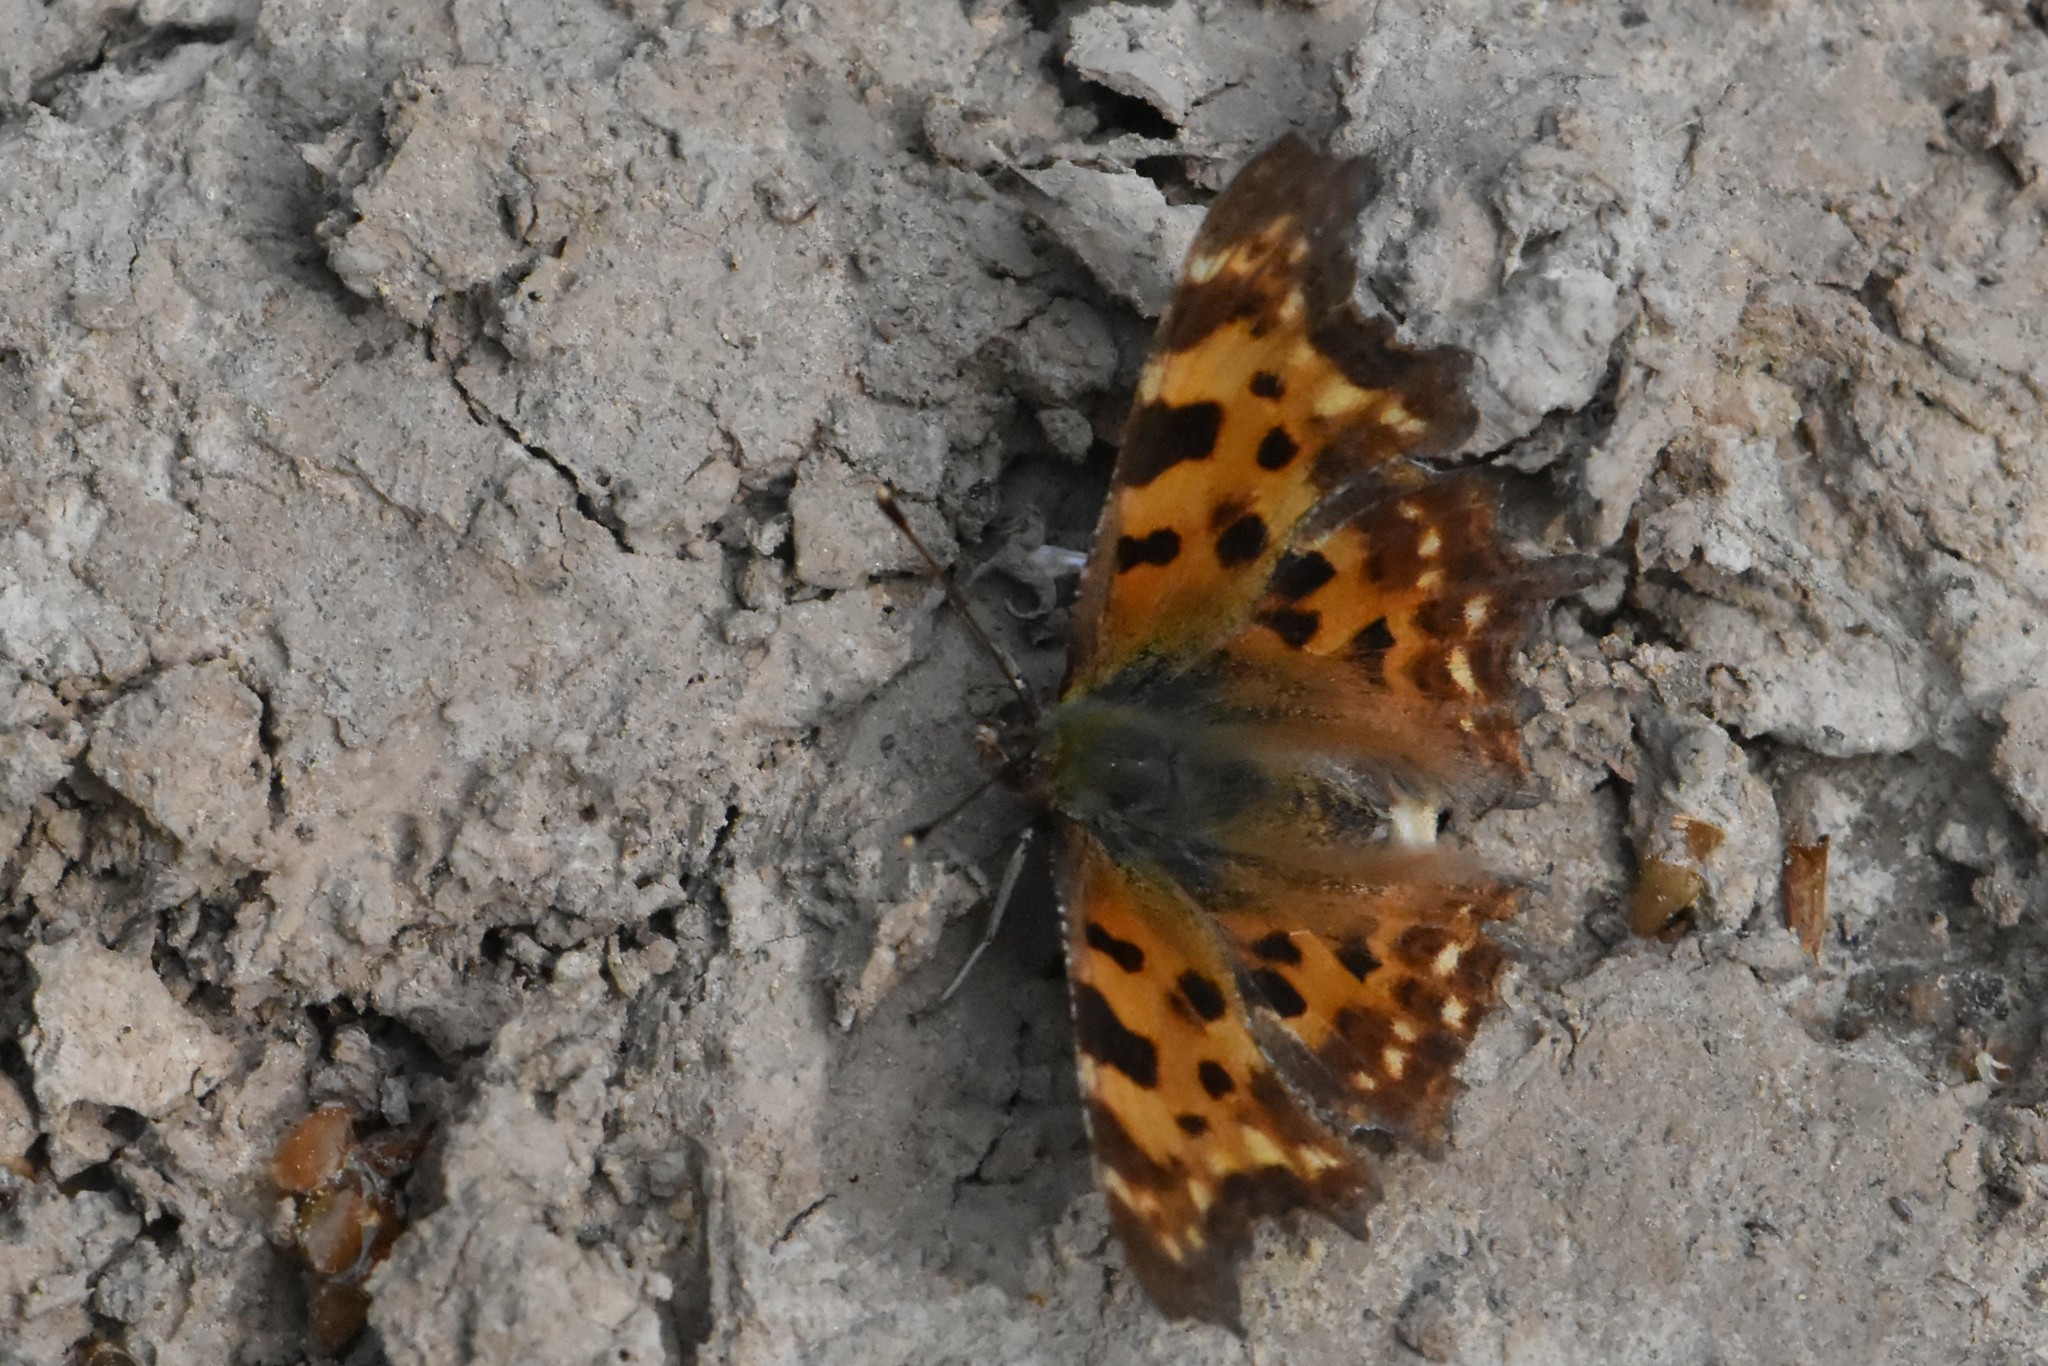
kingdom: Animalia
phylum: Arthropoda
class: Insecta
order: Lepidoptera
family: Nymphalidae
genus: Polygonia
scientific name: Polygonia c-album
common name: Comma
